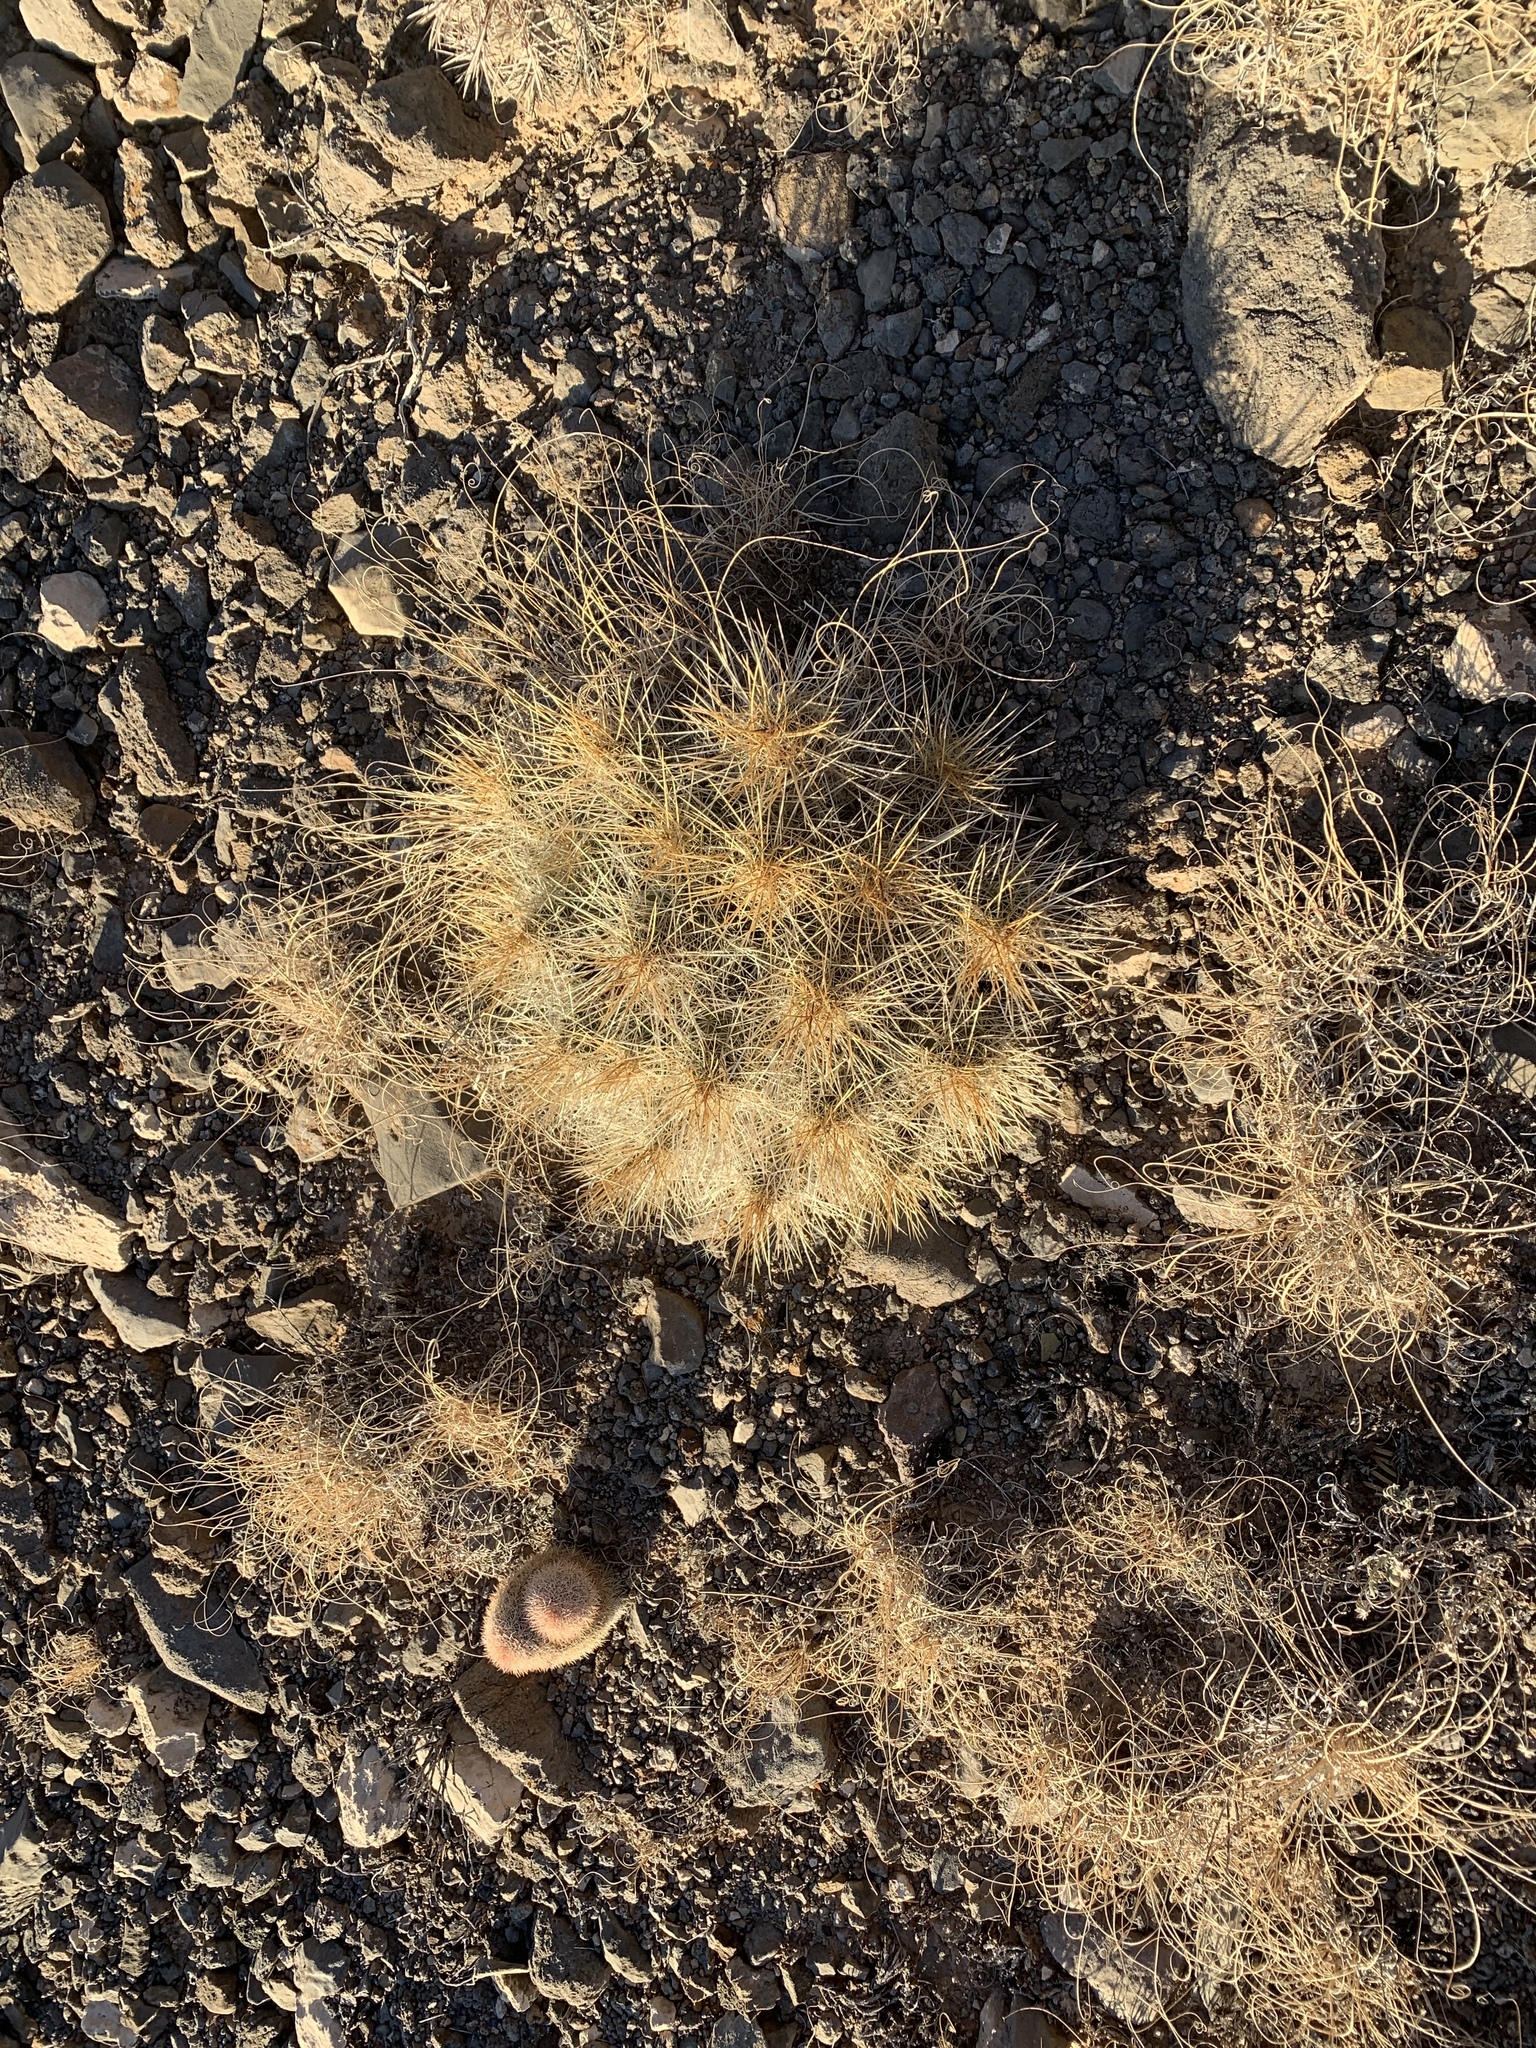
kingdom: Plantae
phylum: Tracheophyta
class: Magnoliopsida
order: Caryophyllales
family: Cactaceae
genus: Echinocereus
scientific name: Echinocereus stramineus
